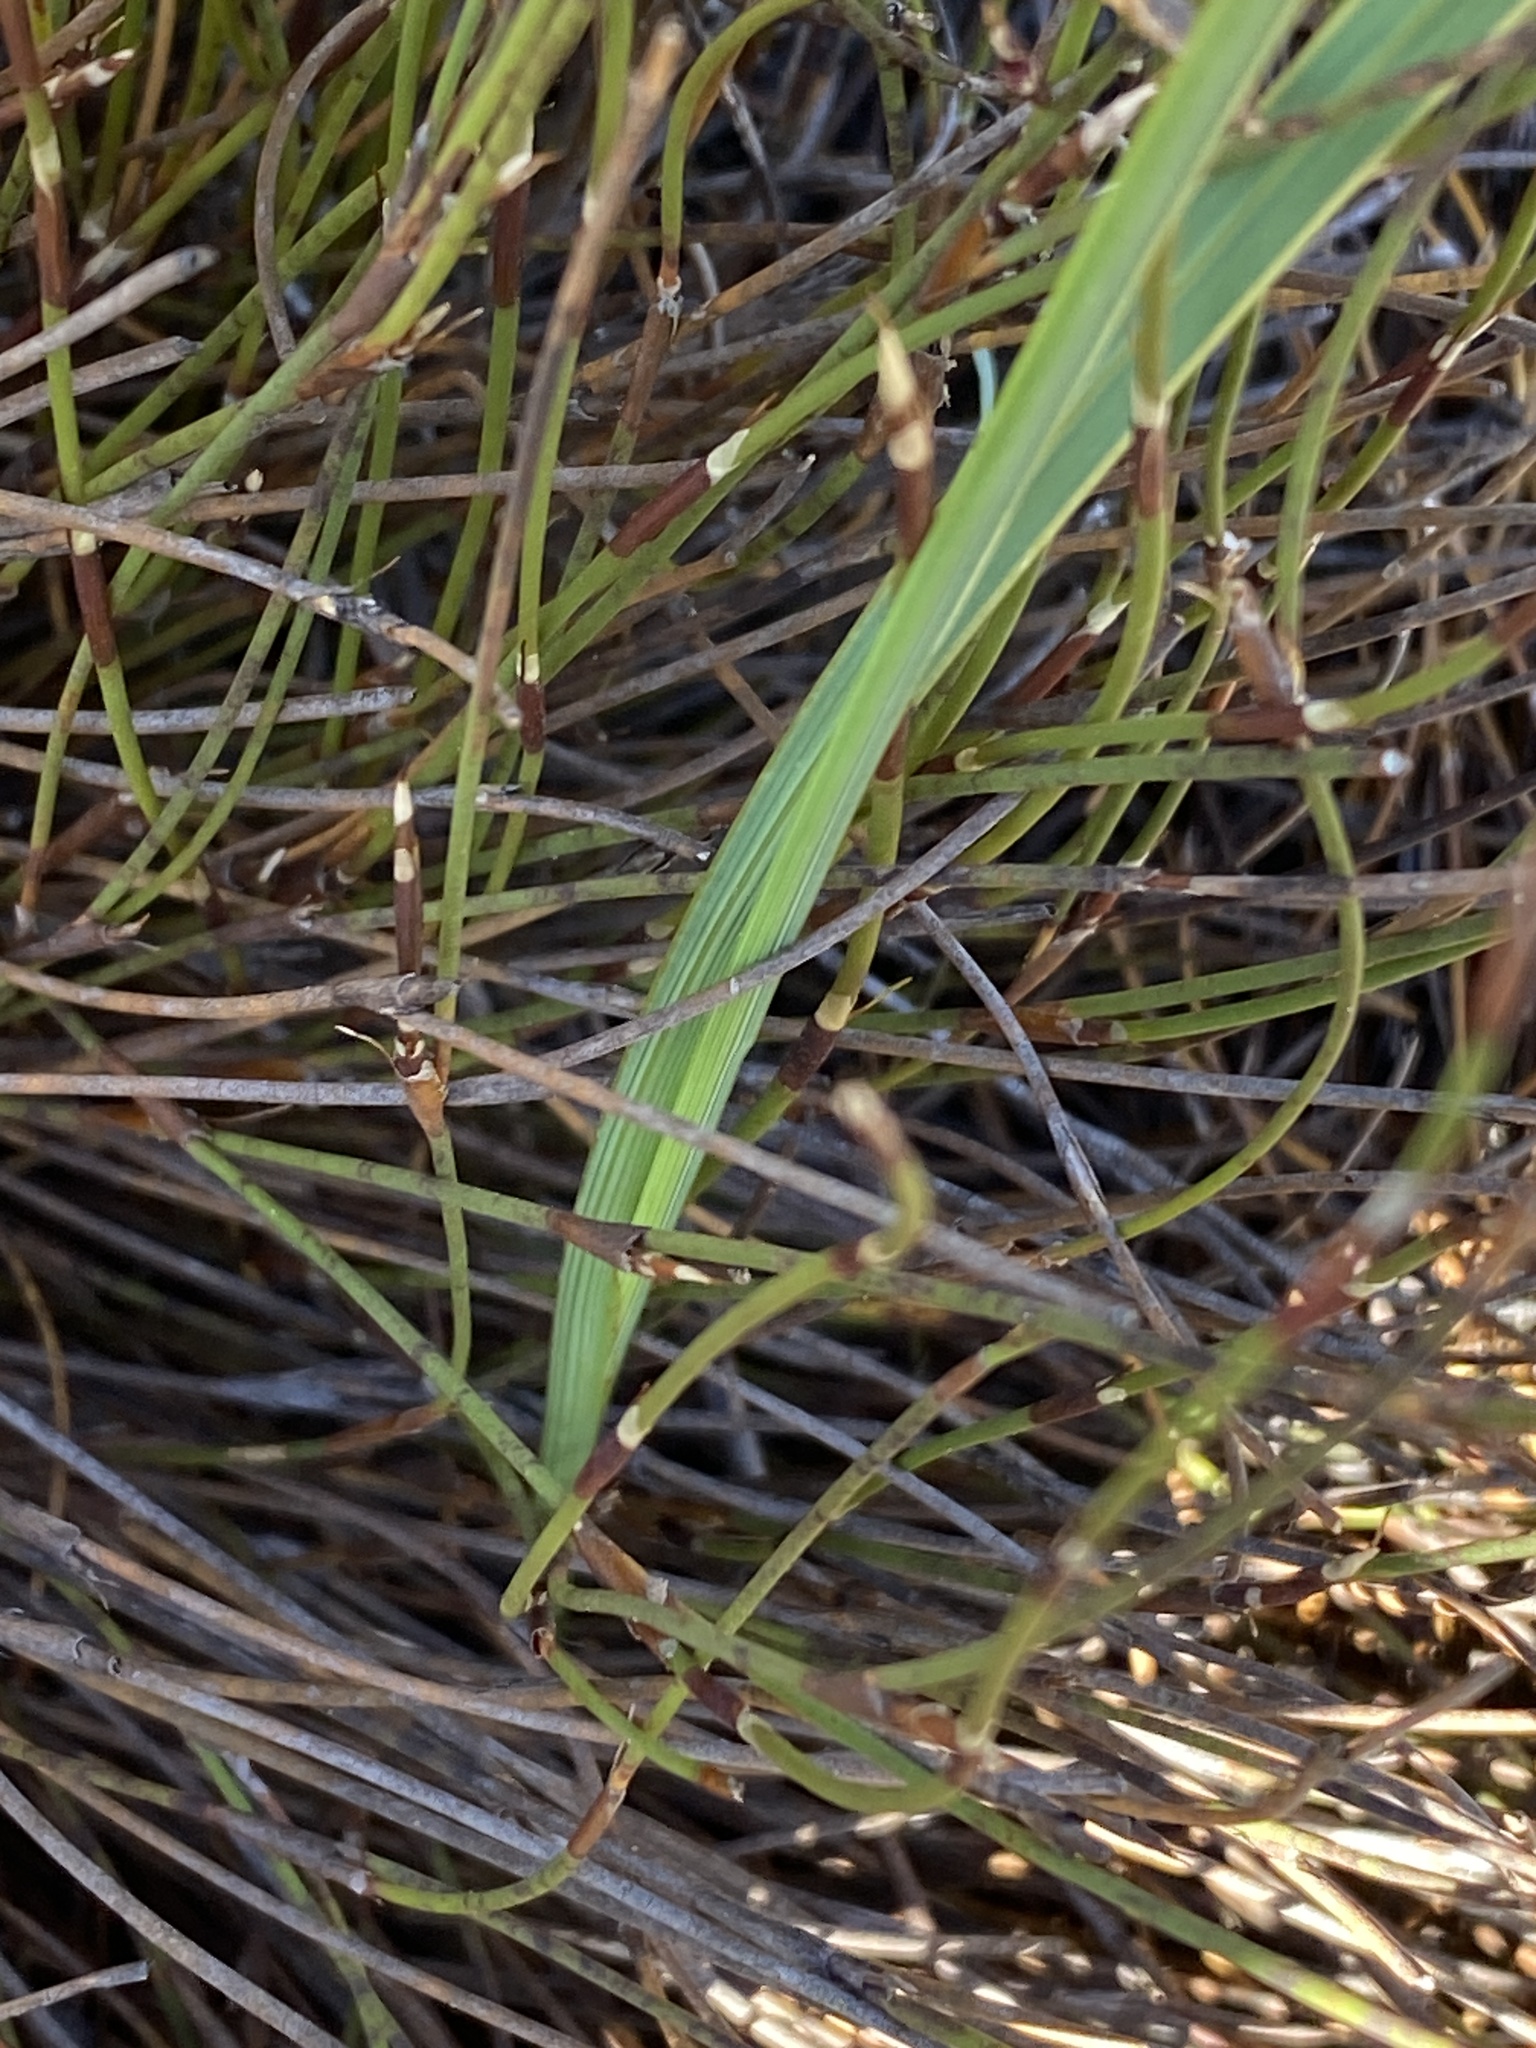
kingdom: Plantae
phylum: Tracheophyta
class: Liliopsida
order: Asparagales
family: Iridaceae
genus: Ixia
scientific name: Ixia oxalidiflora
